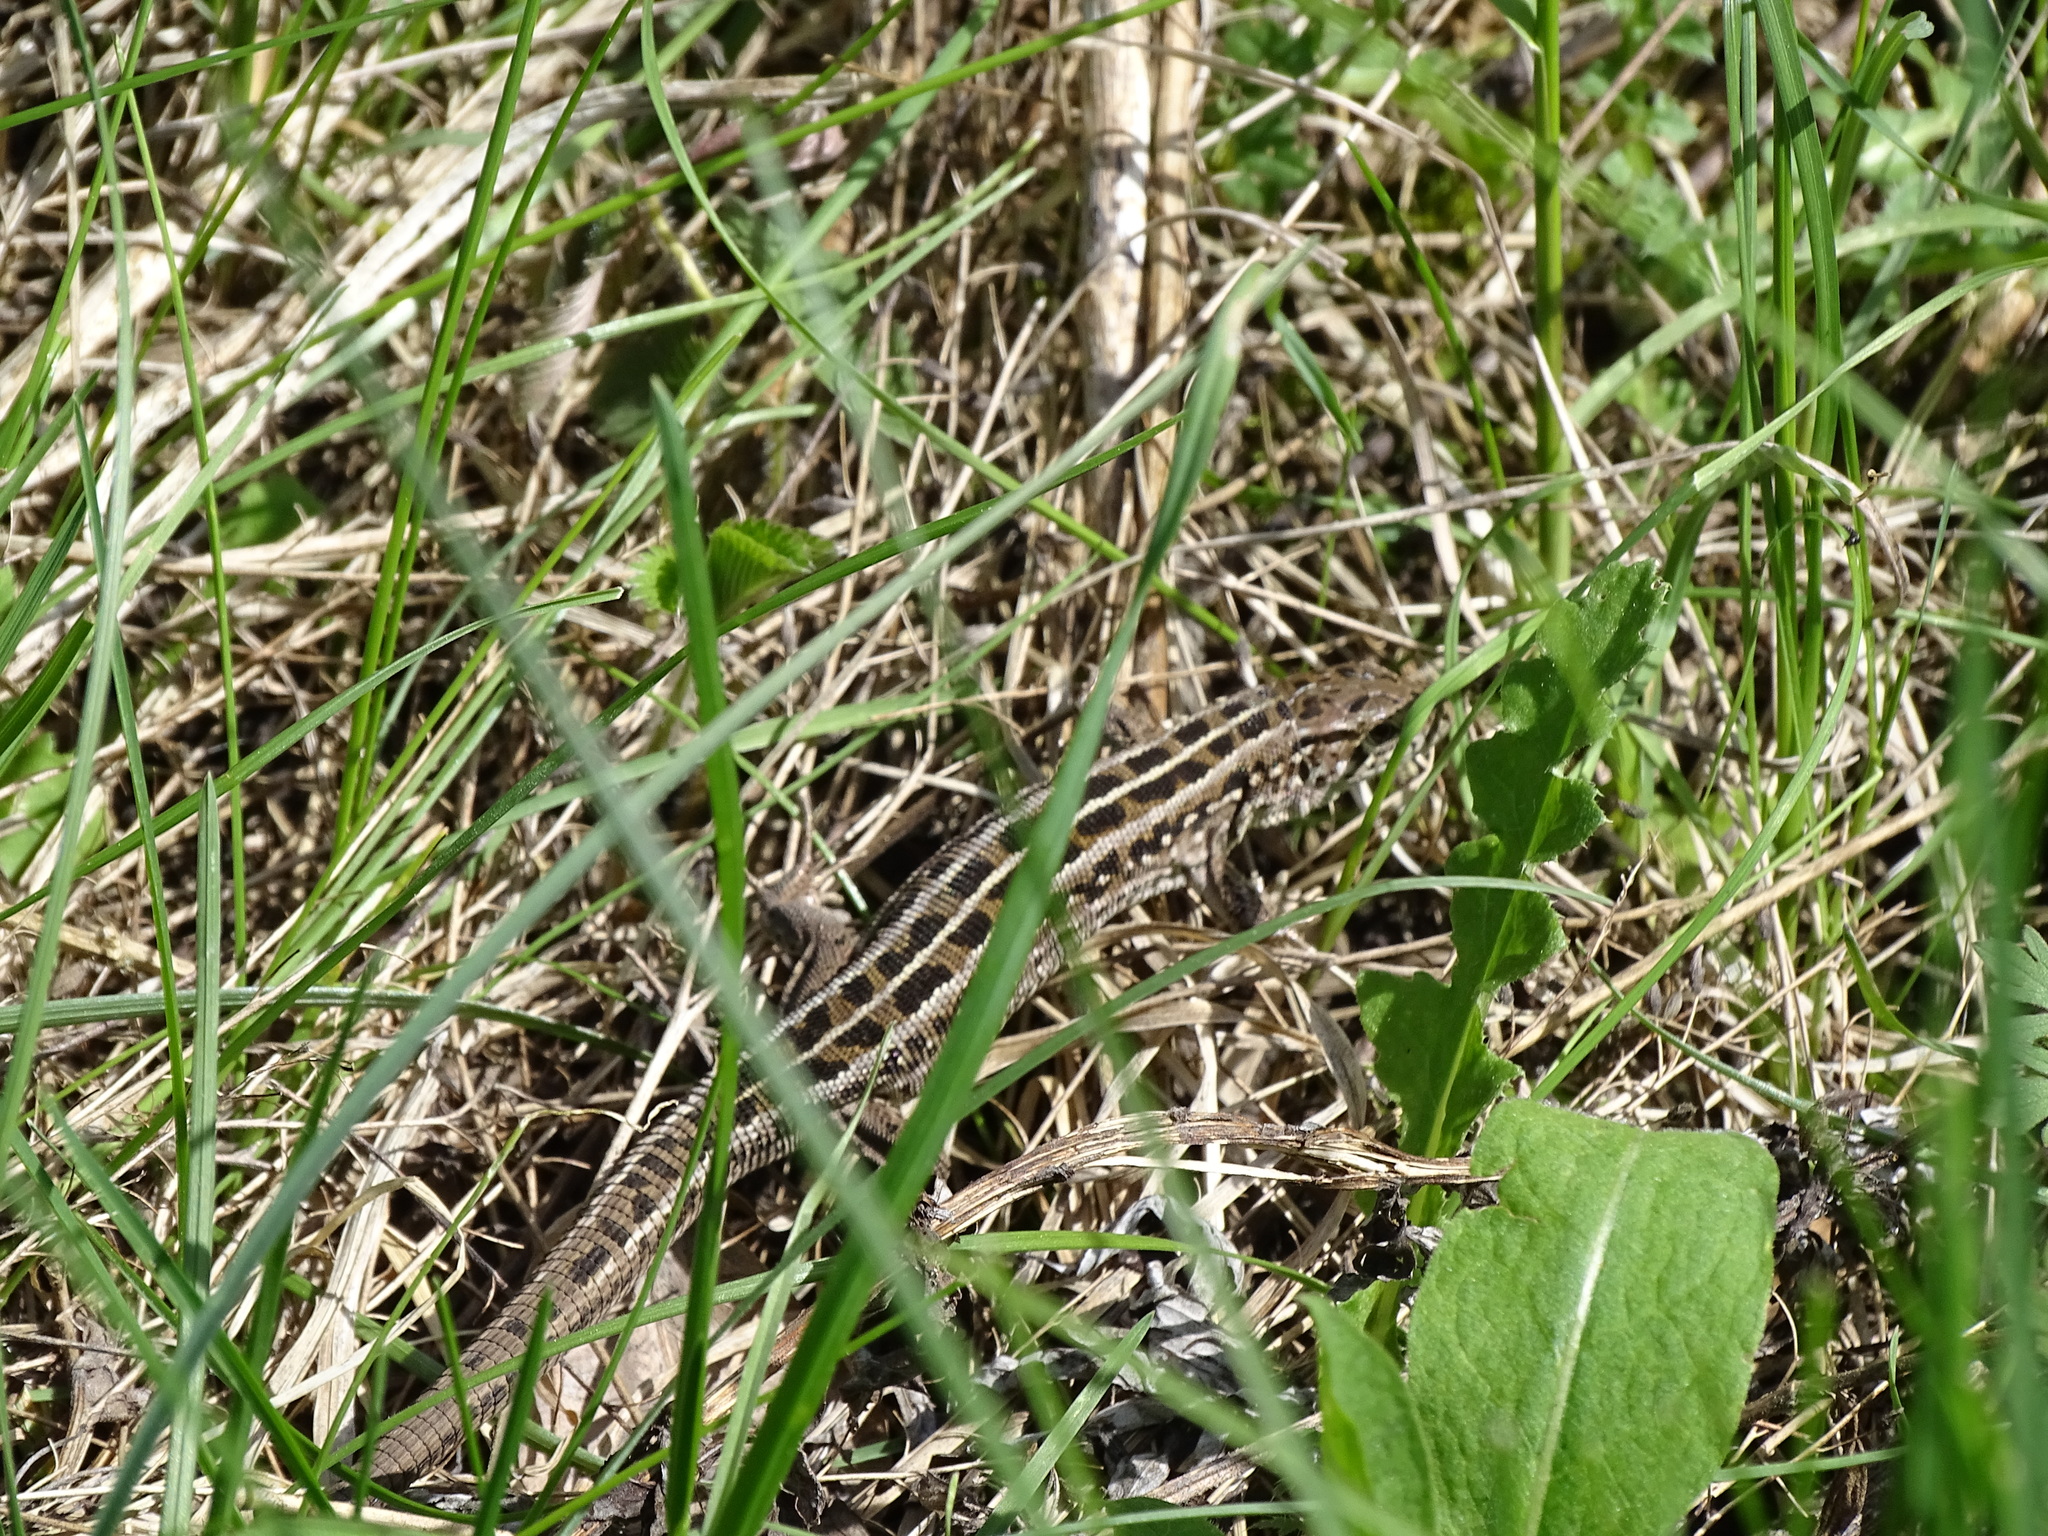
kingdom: Animalia
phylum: Chordata
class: Squamata
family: Lacertidae
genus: Lacerta
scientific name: Lacerta agilis
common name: Sand lizard
